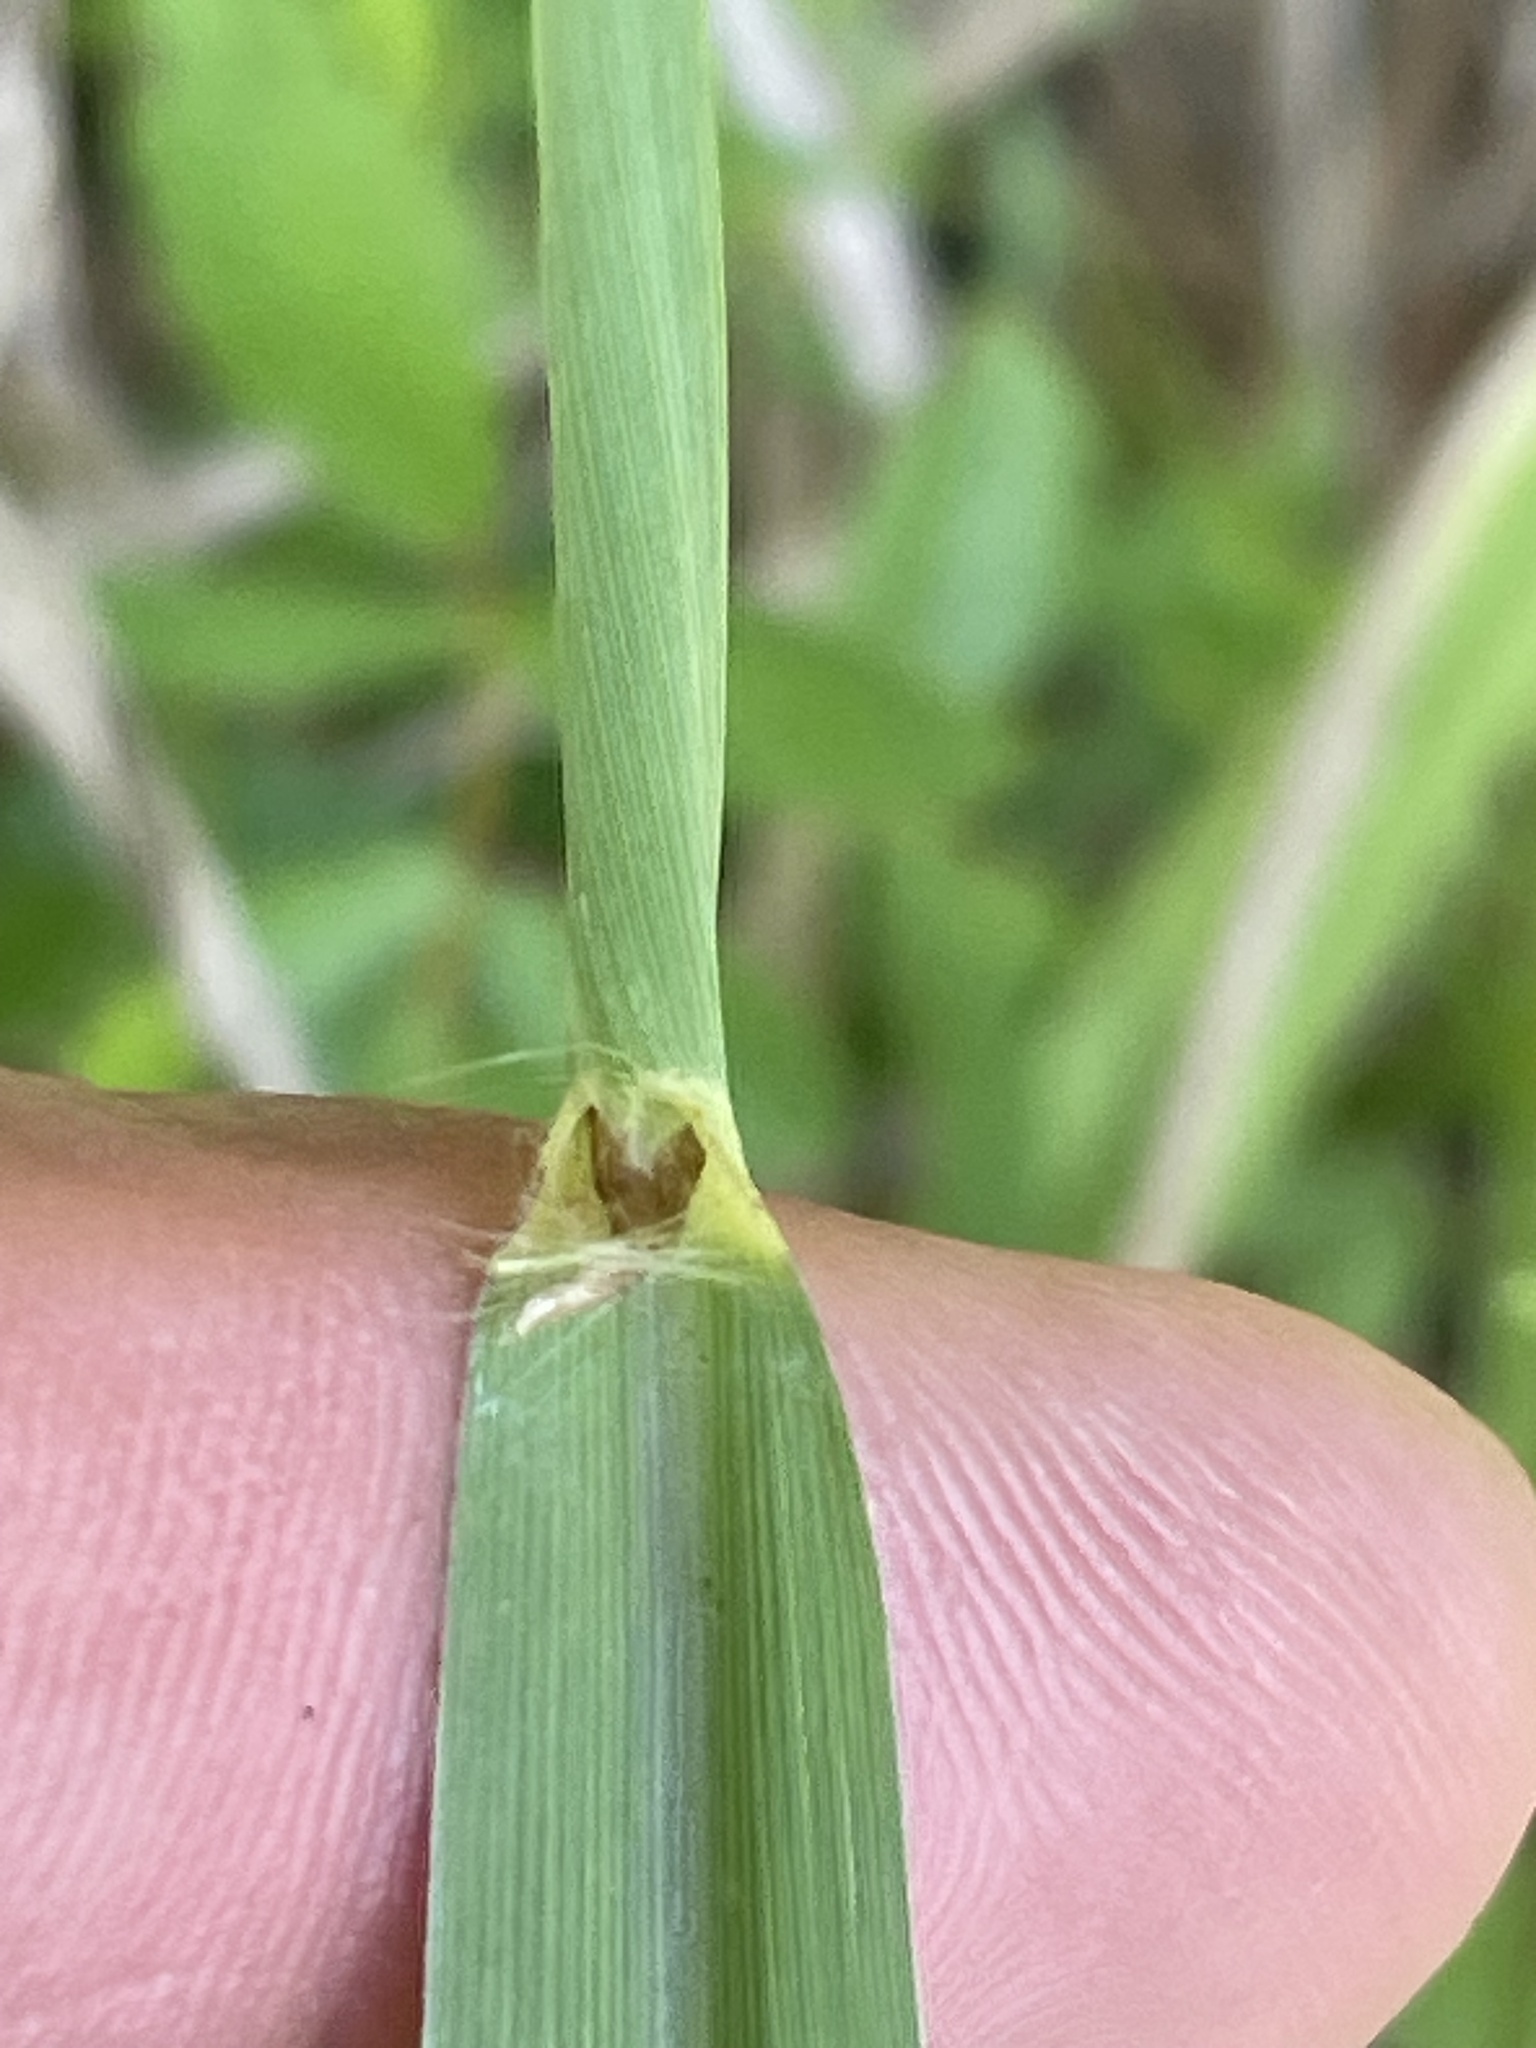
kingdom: Plantae
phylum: Tracheophyta
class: Liliopsida
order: Poales
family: Poaceae
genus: Paspalum
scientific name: Paspalum dilatatum
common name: Dallisgrass
